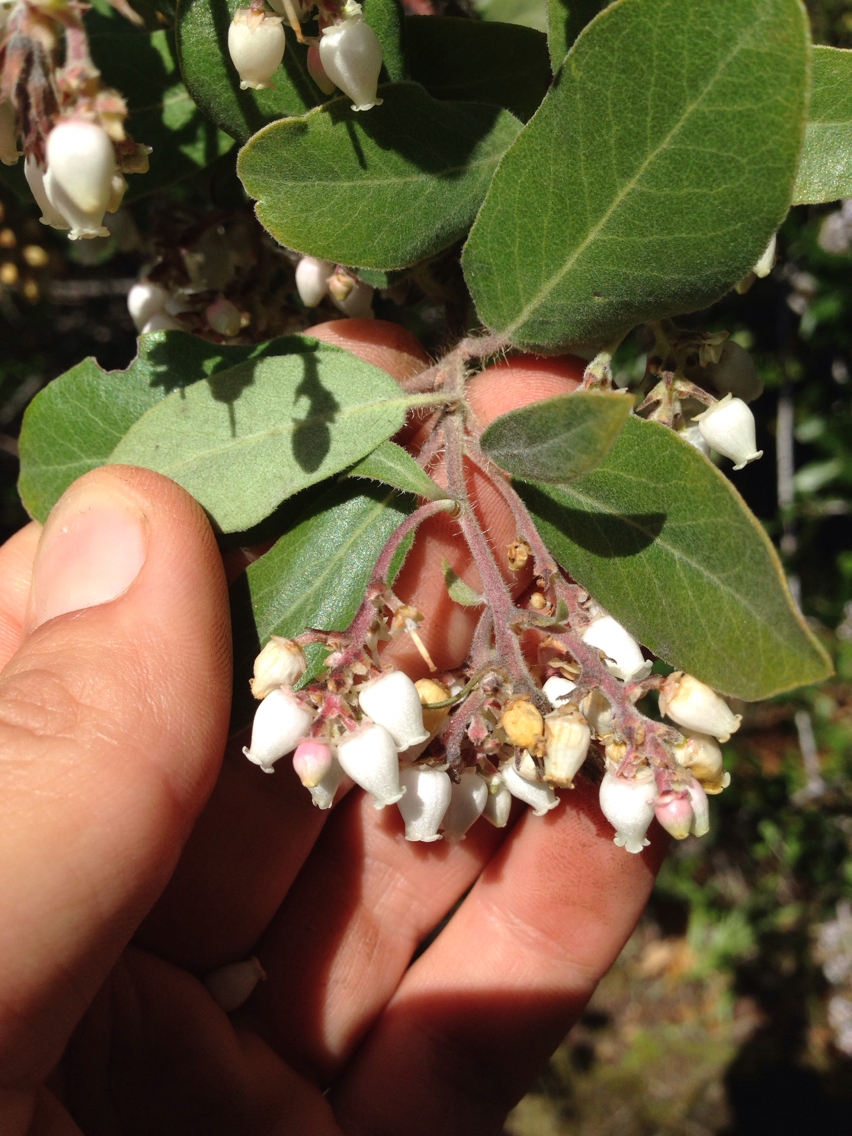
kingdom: Plantae
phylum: Tracheophyta
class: Magnoliopsida
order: Ericales
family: Ericaceae
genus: Arctostaphylos
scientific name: Arctostaphylos crustacea
